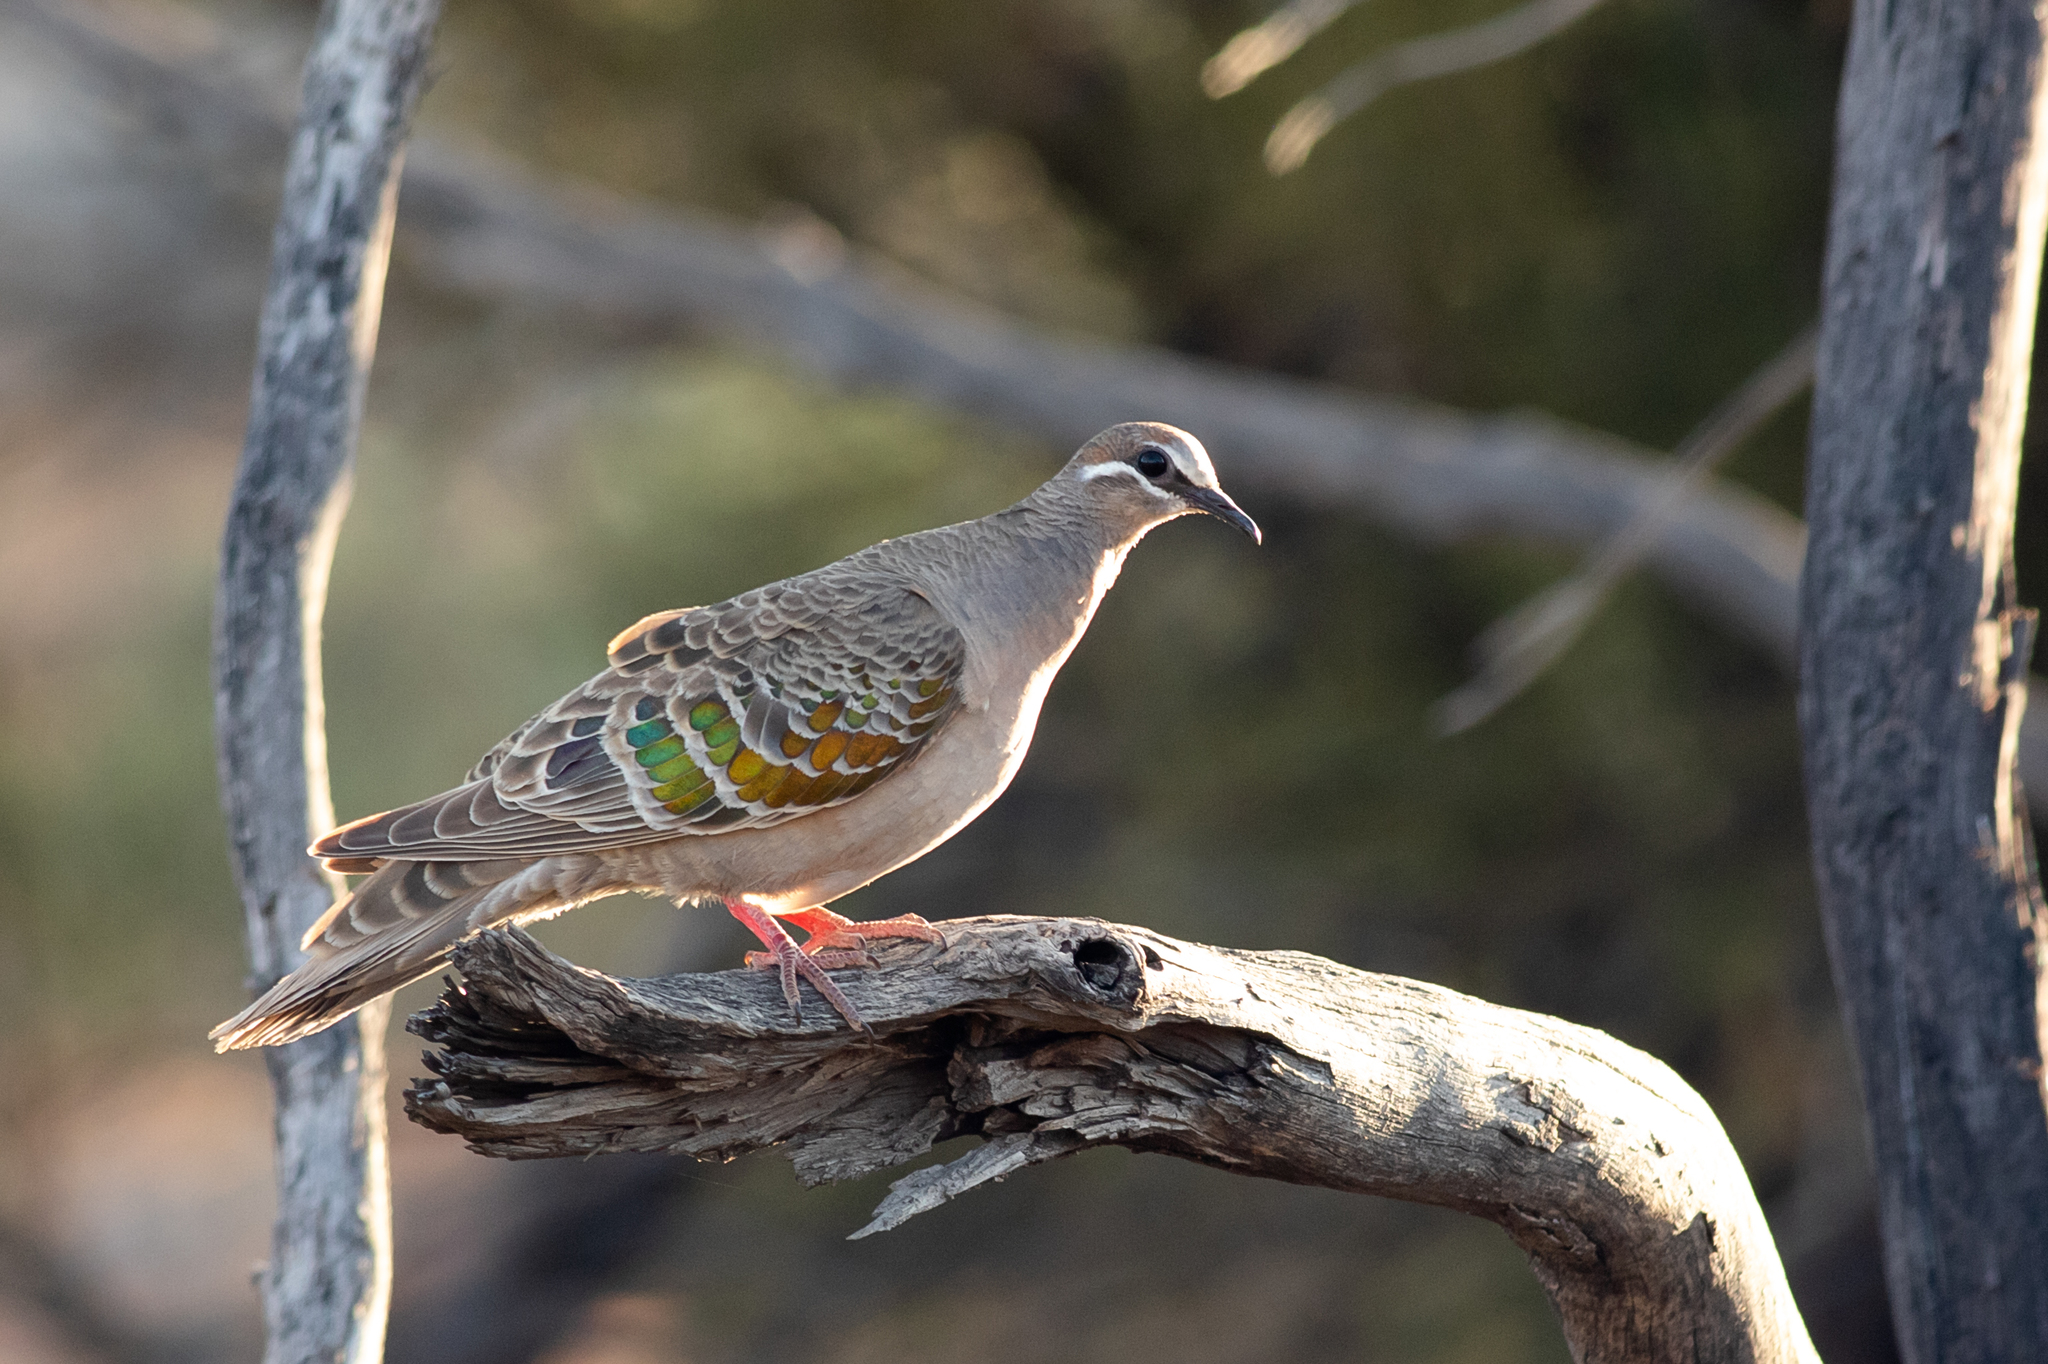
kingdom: Animalia
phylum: Chordata
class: Aves
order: Columbiformes
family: Columbidae
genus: Phaps
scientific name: Phaps chalcoptera
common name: Common bronzewing
